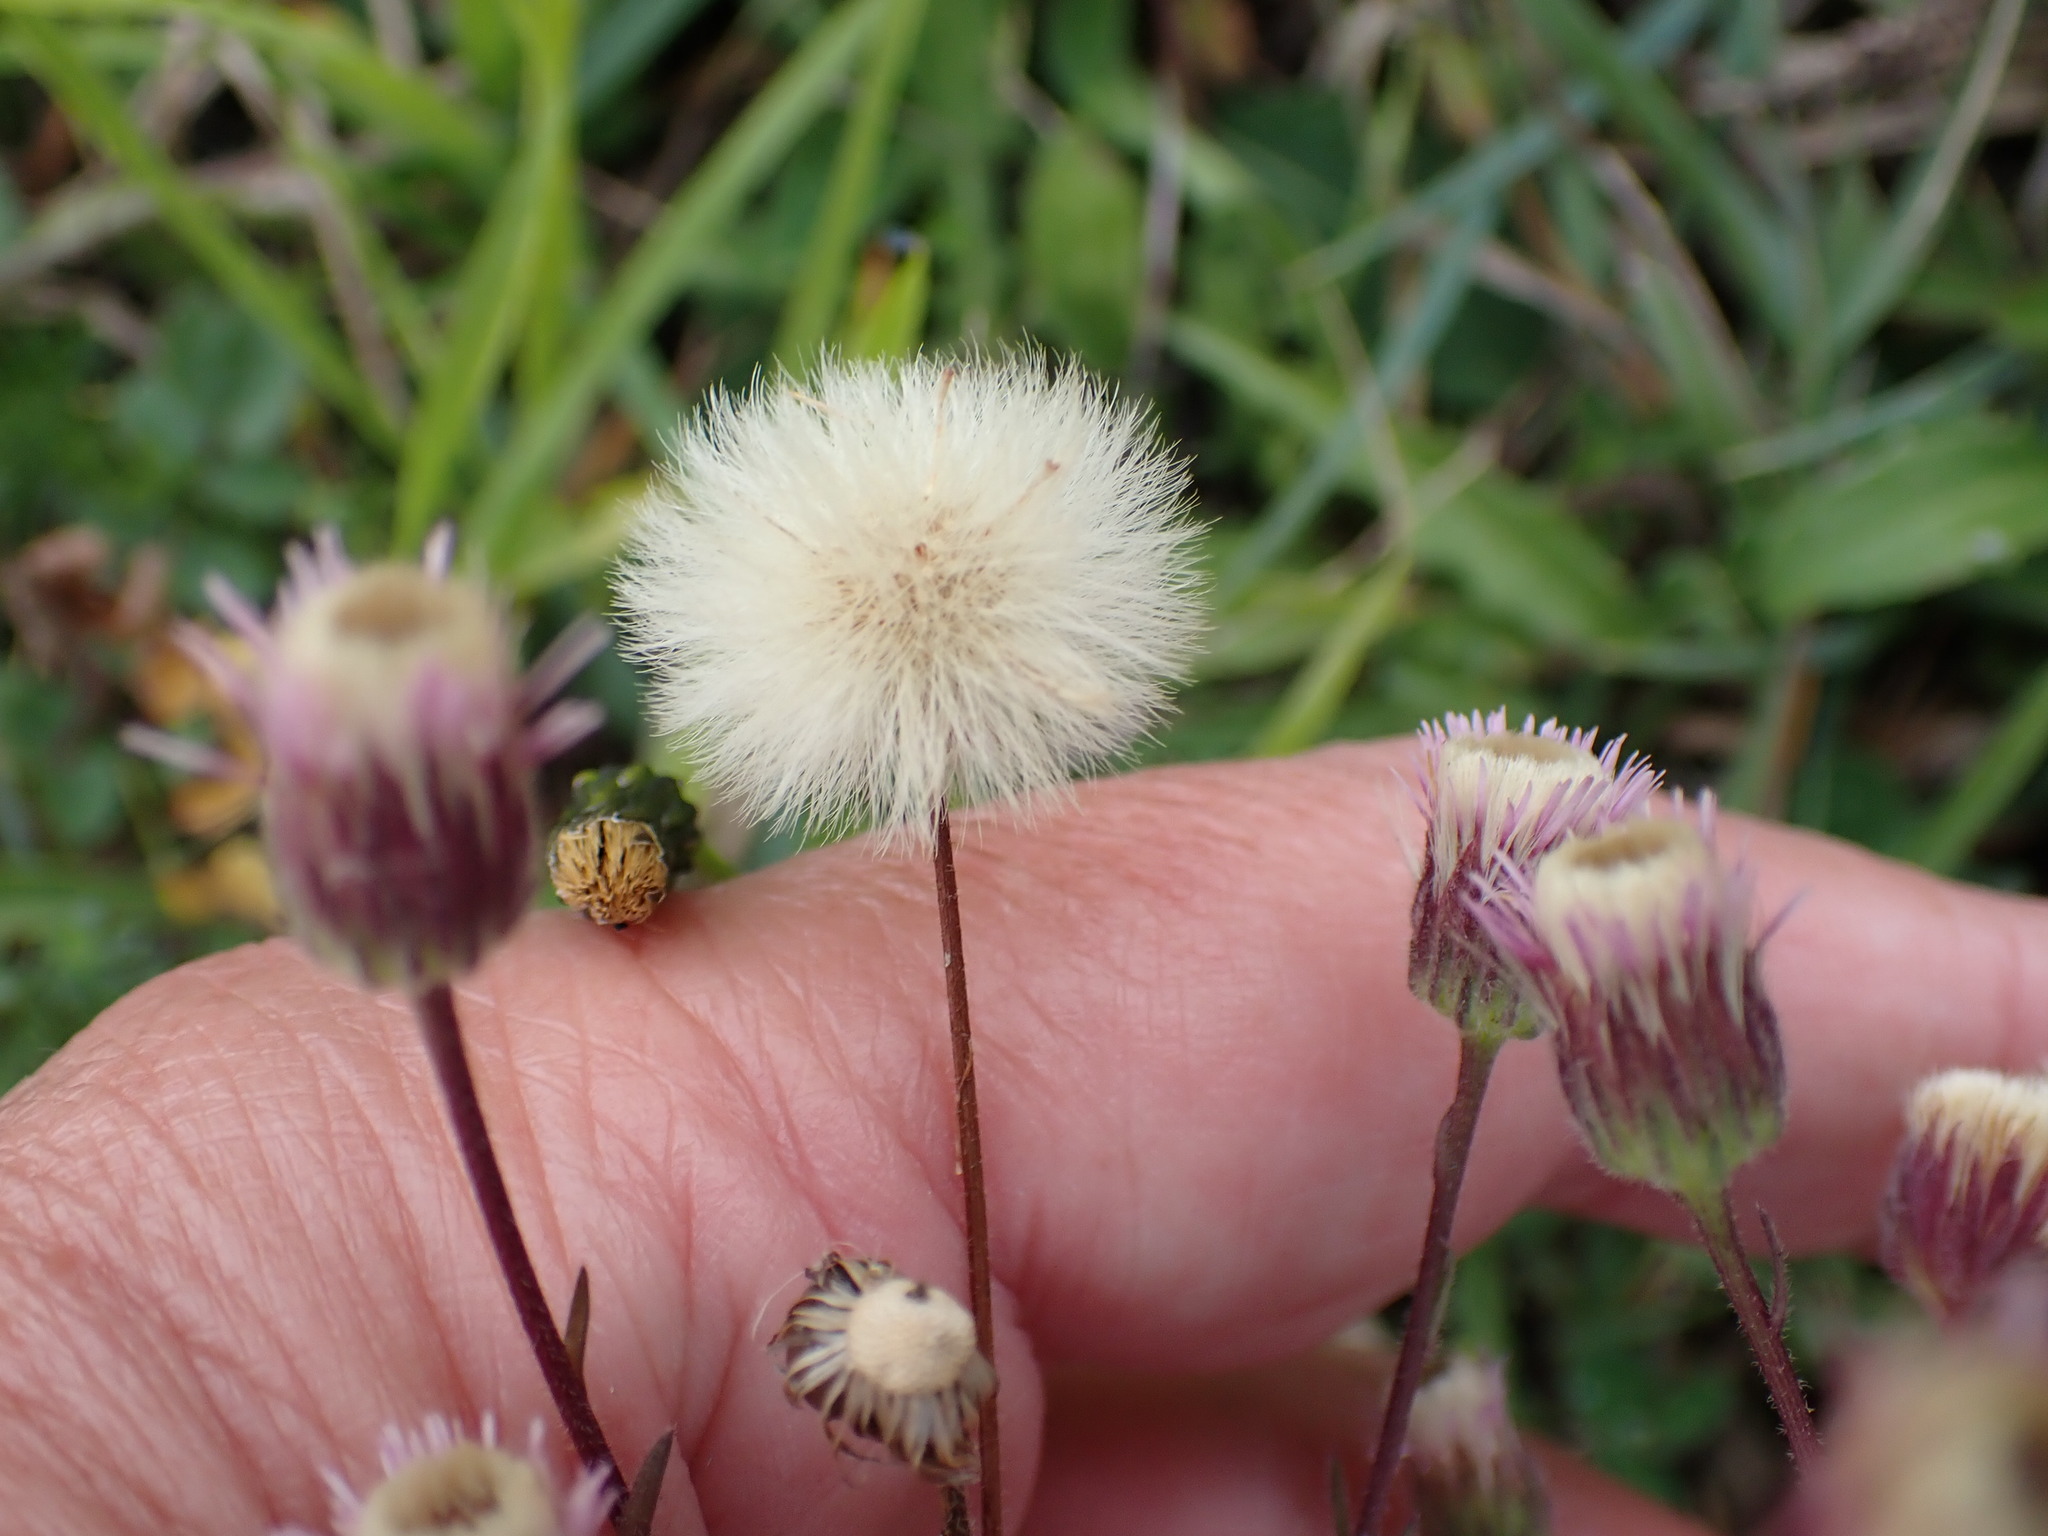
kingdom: Plantae
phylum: Tracheophyta
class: Magnoliopsida
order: Asterales
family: Asteraceae
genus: Erigeron
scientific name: Erigeron acris
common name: Blue fleabane
